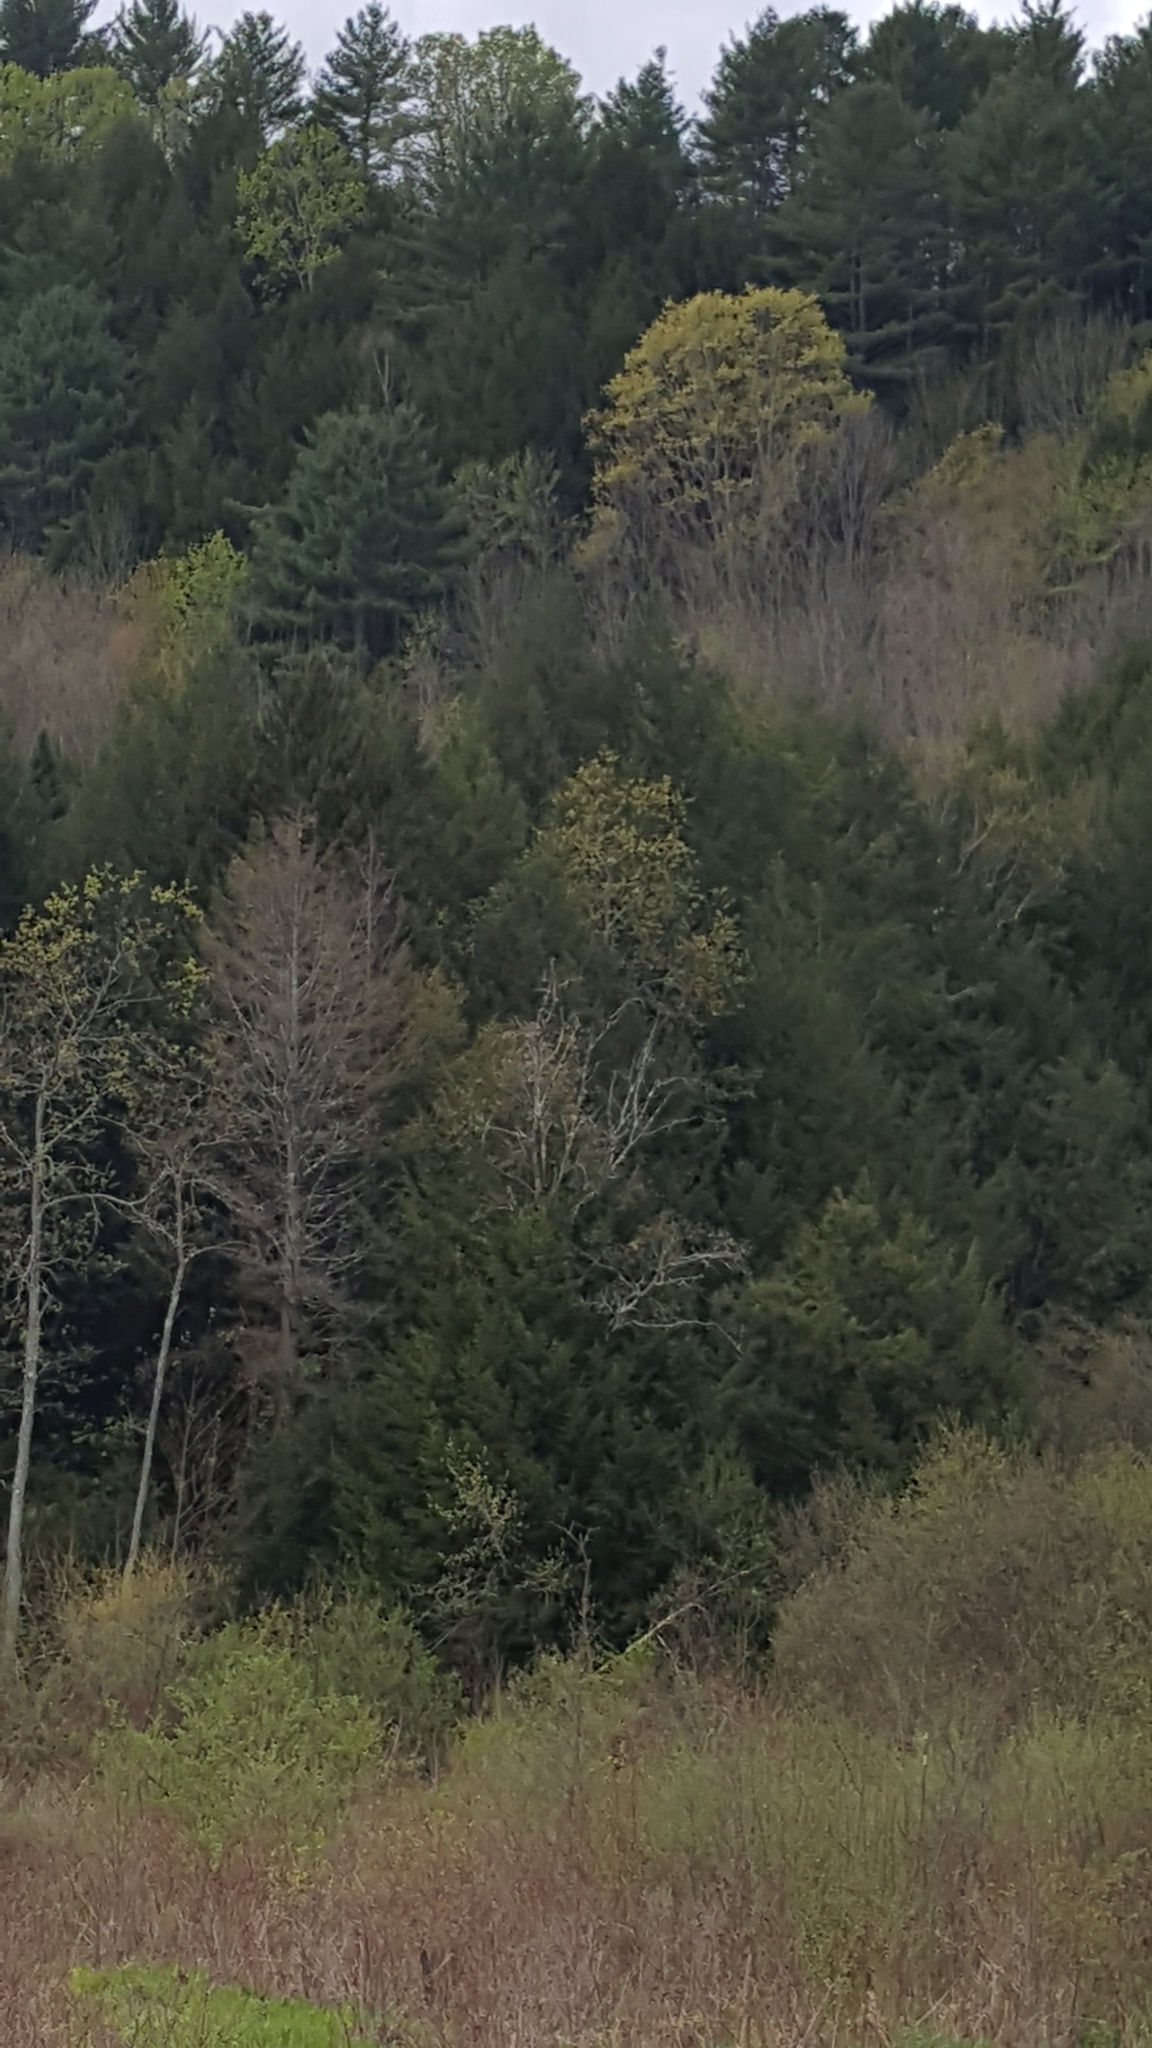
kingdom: Plantae
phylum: Tracheophyta
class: Pinopsida
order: Pinales
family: Pinaceae
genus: Tsuga
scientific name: Tsuga canadensis
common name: Eastern hemlock
